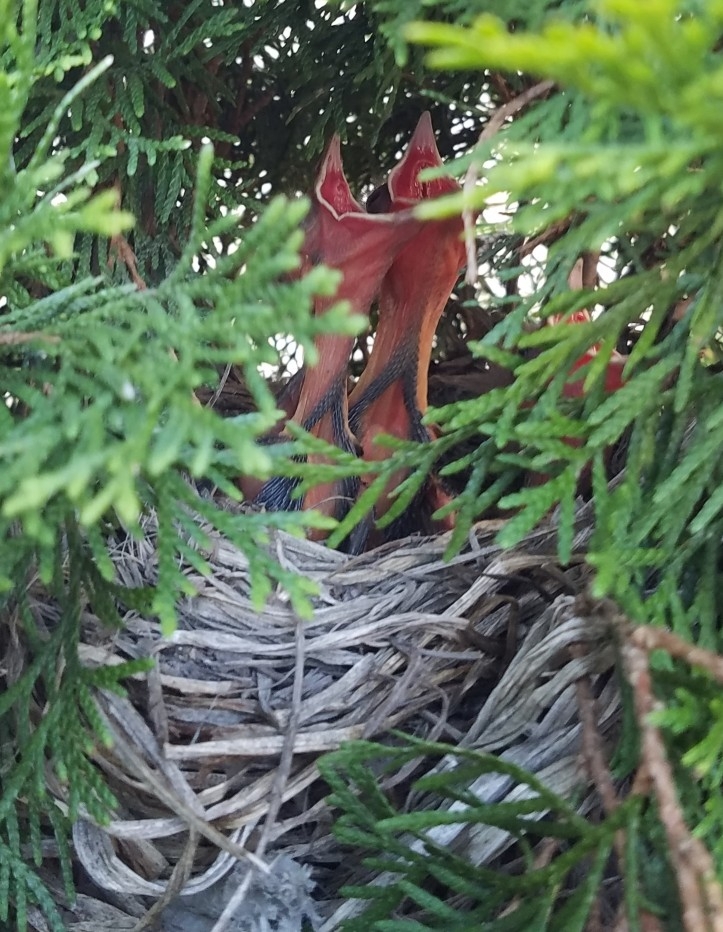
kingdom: Animalia
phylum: Chordata
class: Aves
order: Passeriformes
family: Cardinalidae
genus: Cardinalis
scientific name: Cardinalis cardinalis
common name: Northern cardinal
